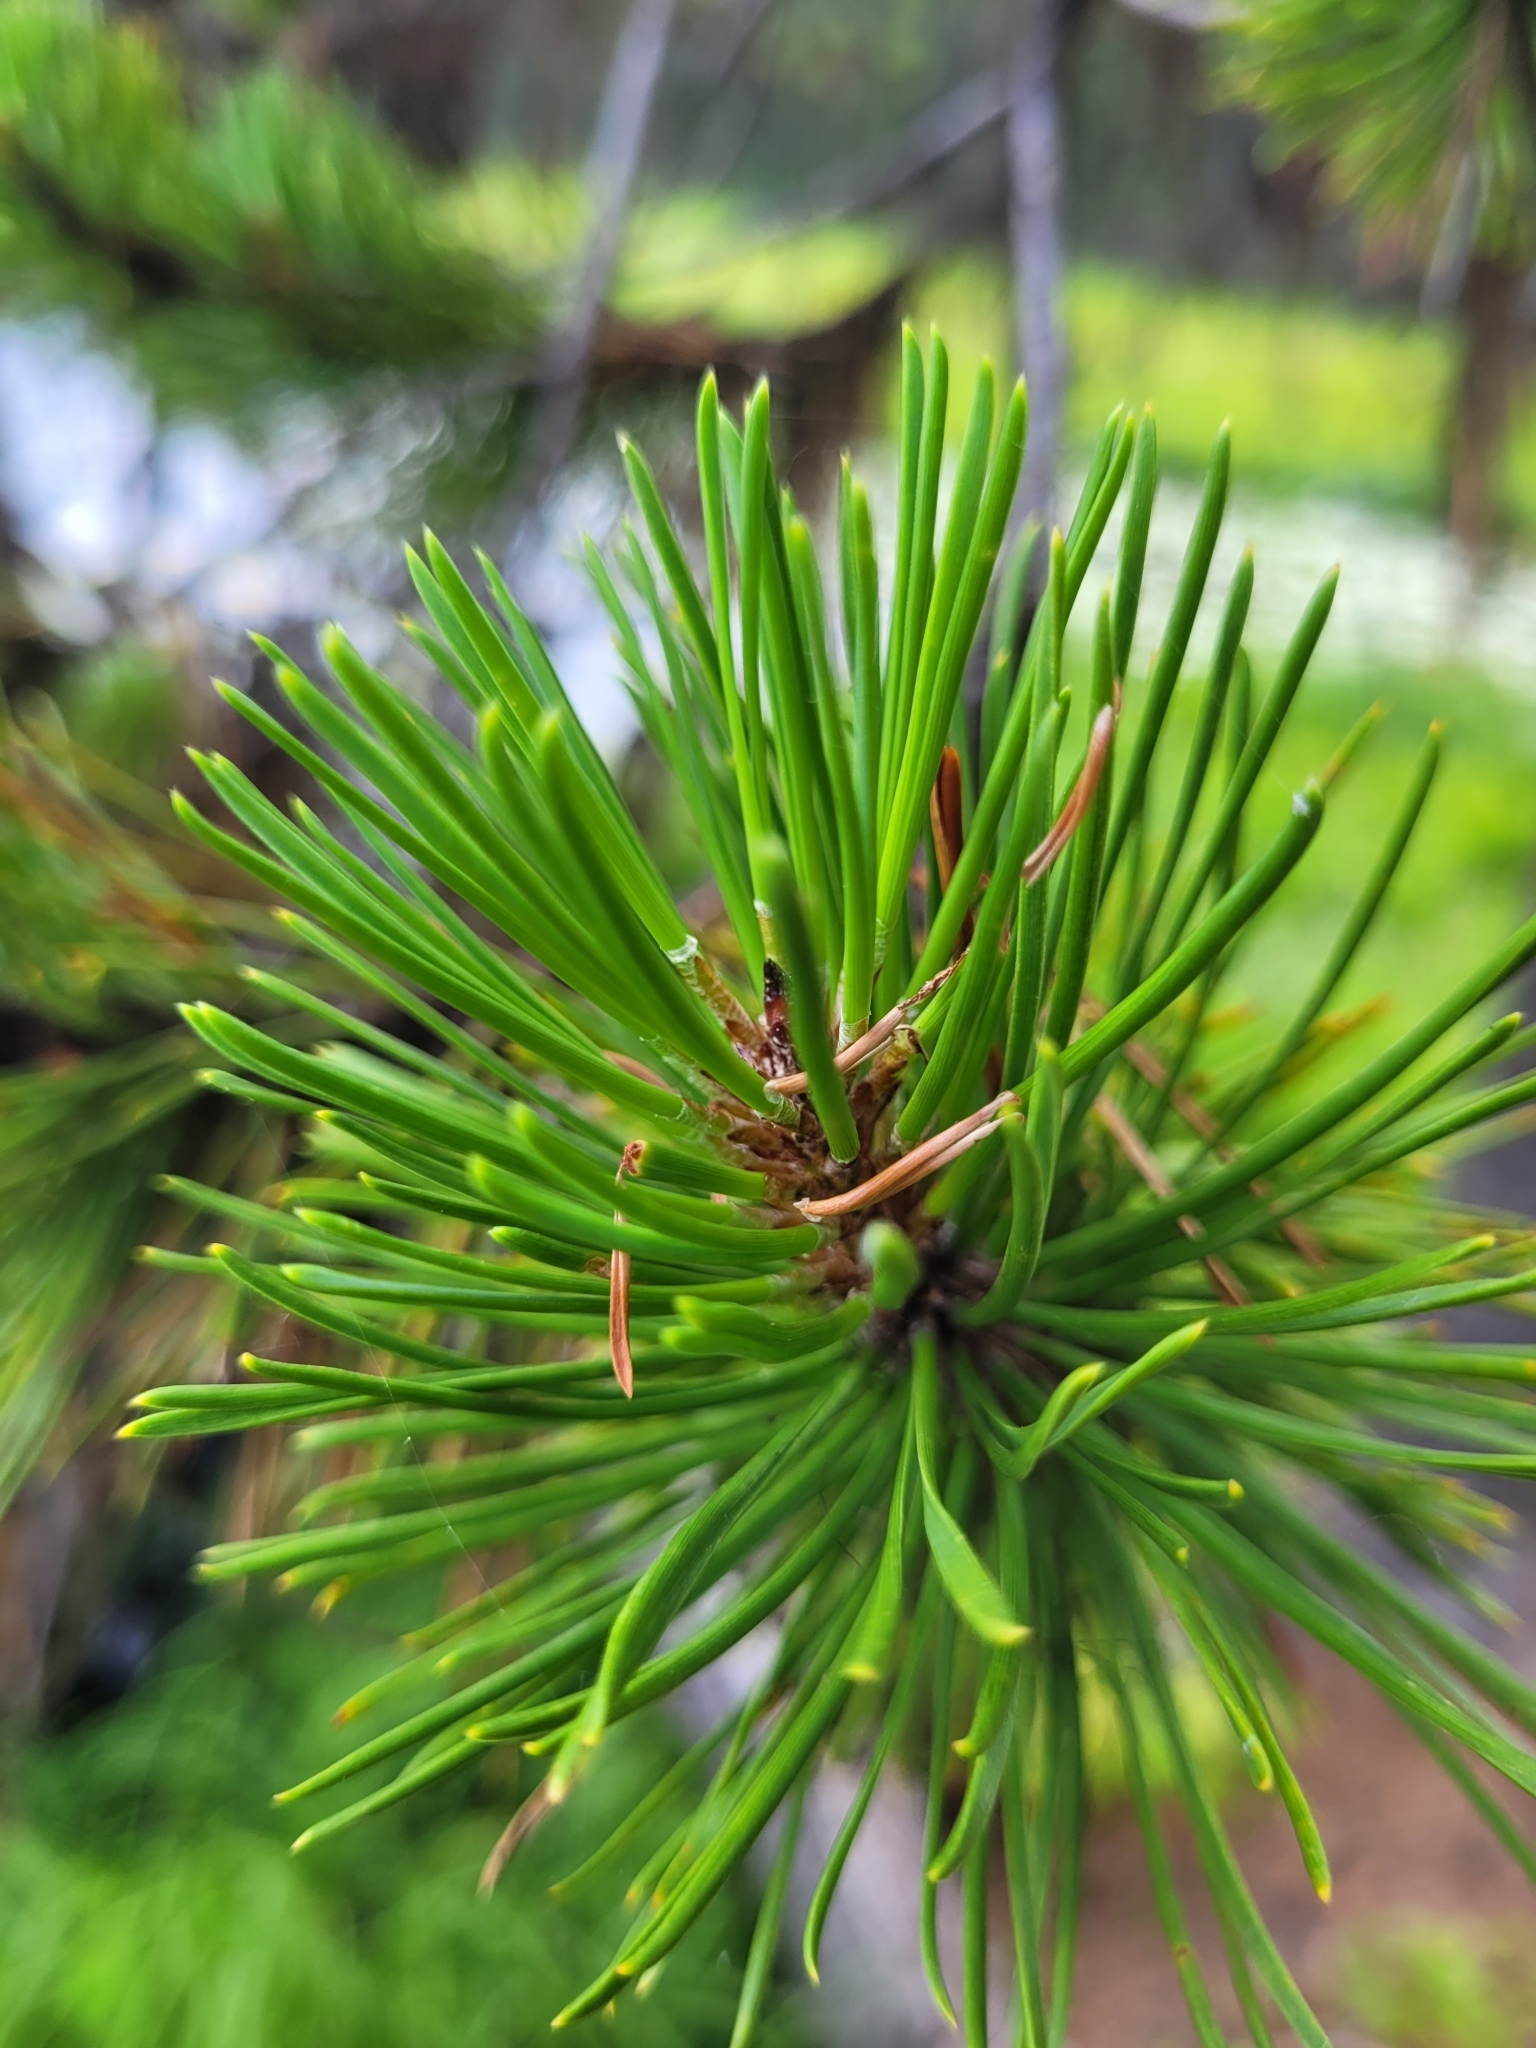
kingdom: Plantae
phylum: Tracheophyta
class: Pinopsida
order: Pinales
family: Pinaceae
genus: Pinus
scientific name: Pinus contorta
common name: Lodgepole pine
